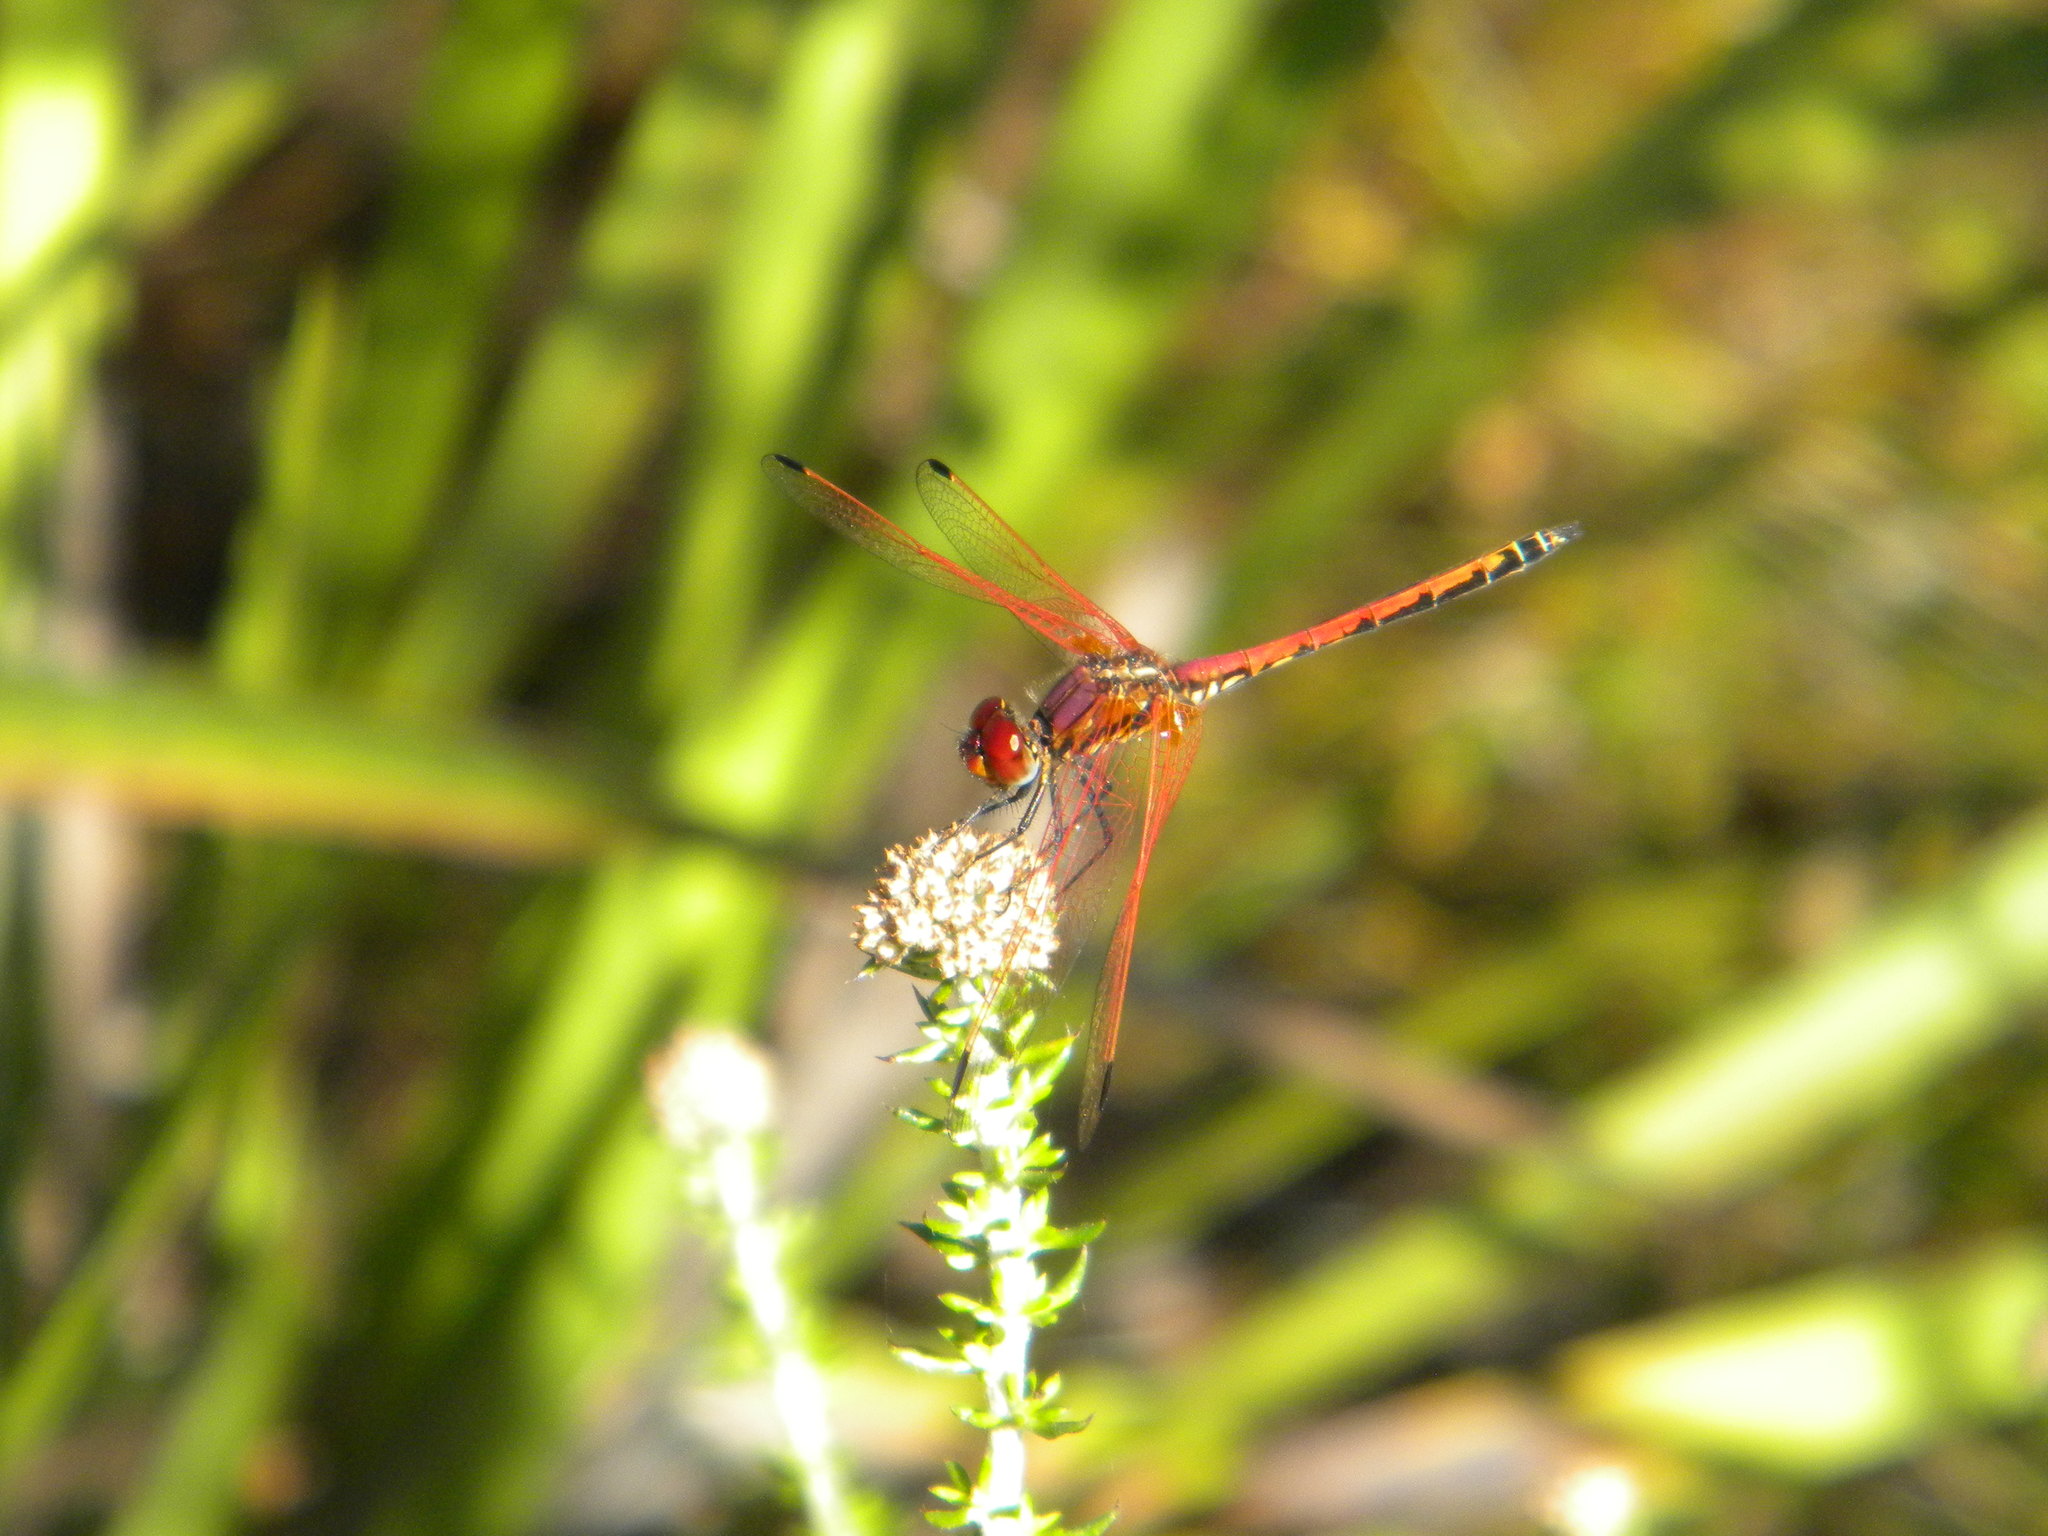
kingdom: Animalia
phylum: Arthropoda
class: Insecta
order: Odonata
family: Libellulidae
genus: Trithemis
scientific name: Trithemis arteriosa
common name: Red-veined dropwing
